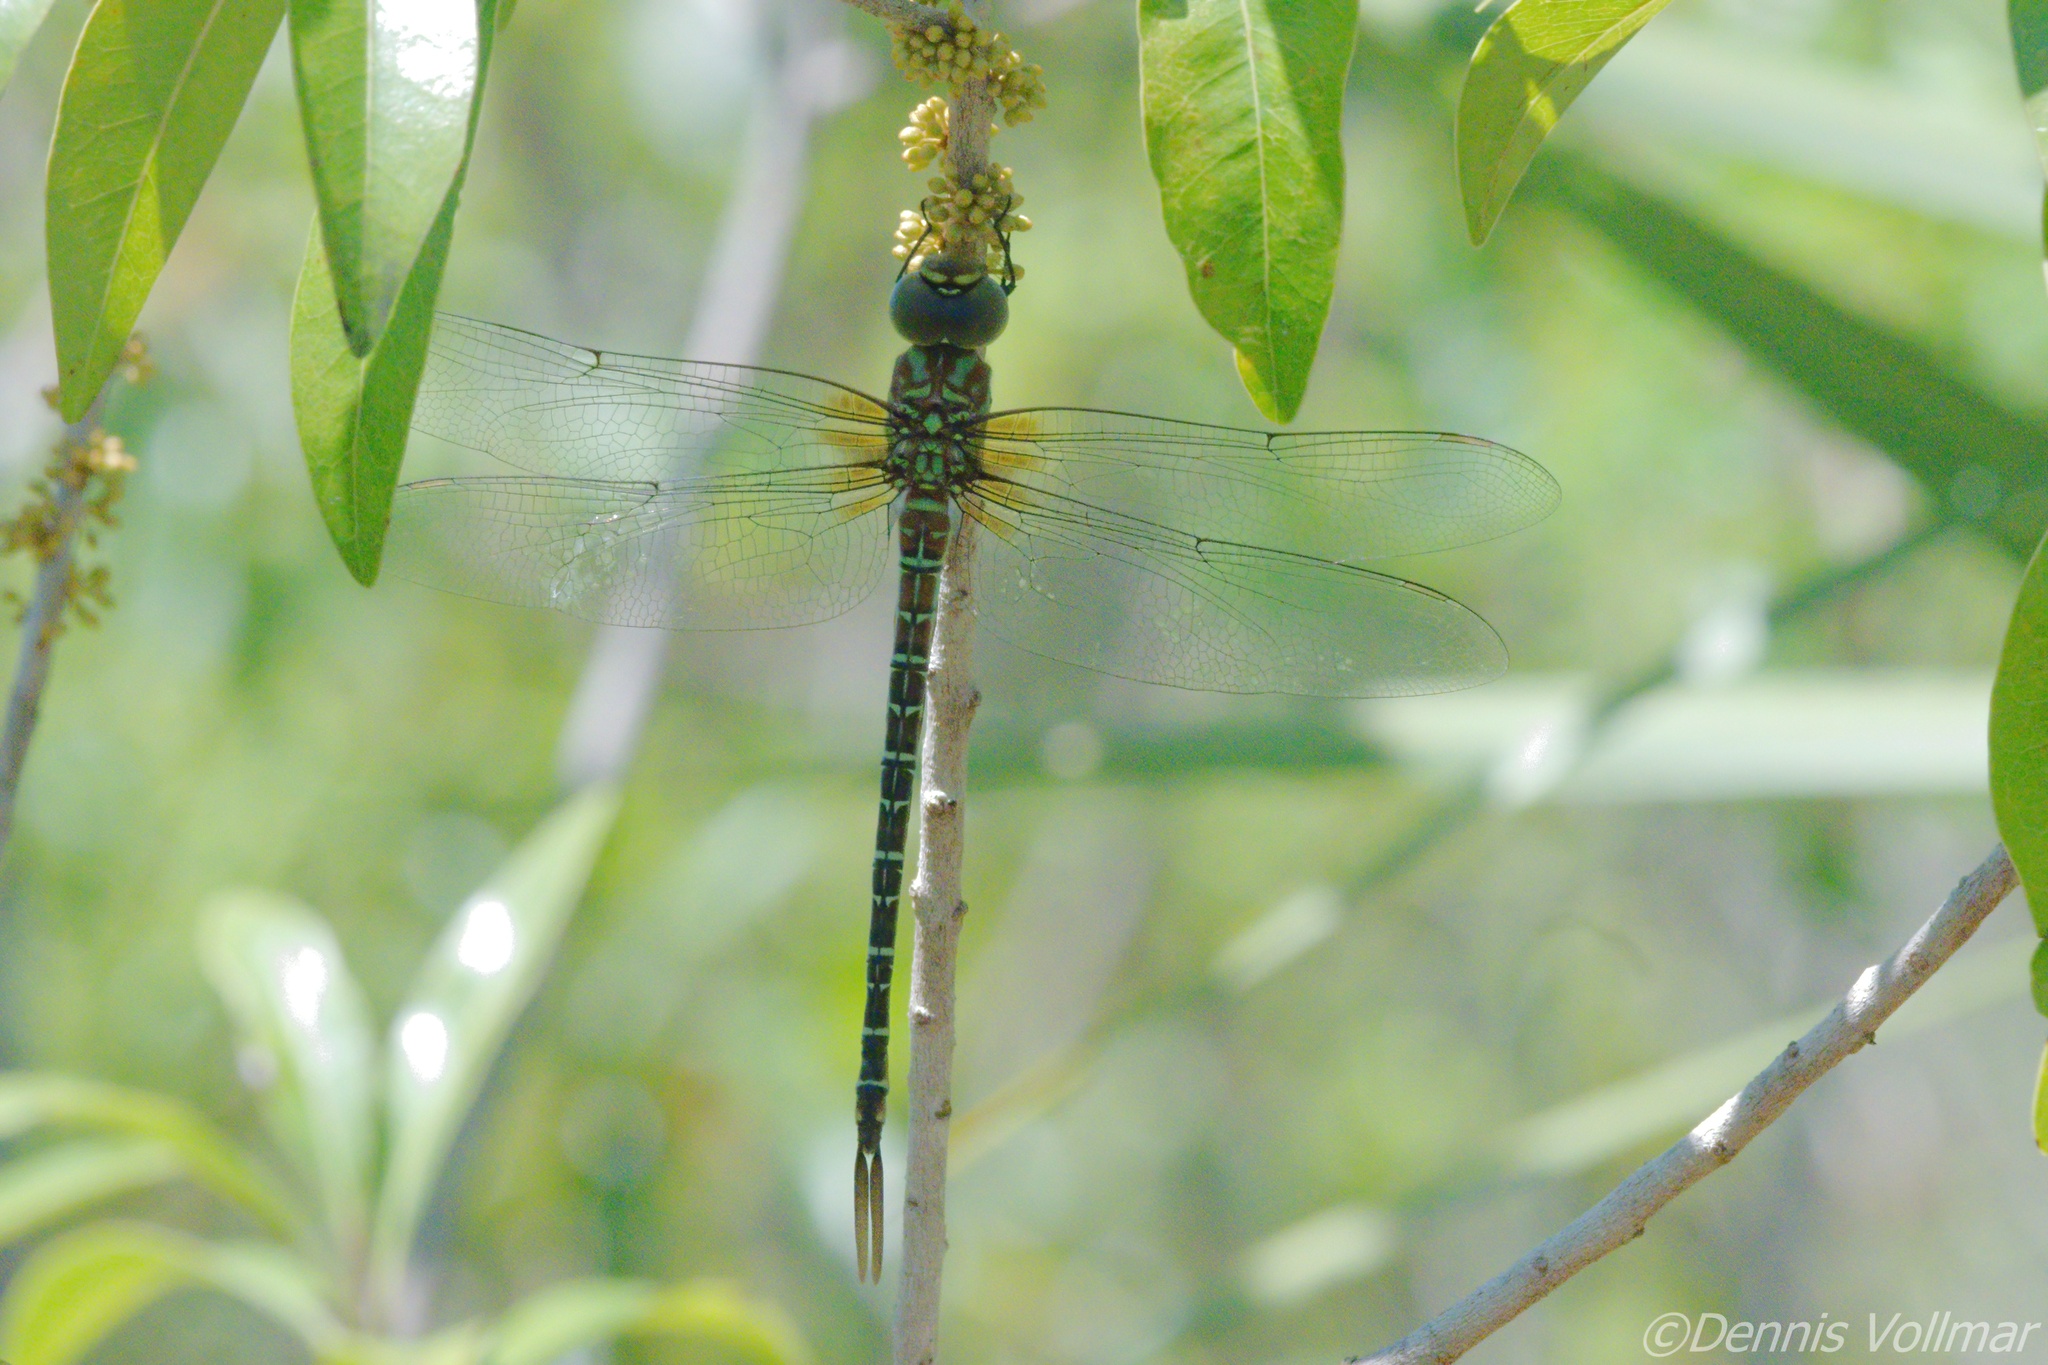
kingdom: Animalia
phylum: Arthropoda
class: Insecta
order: Odonata
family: Aeshnidae
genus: Coryphaeschna
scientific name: Coryphaeschna ingens
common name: Regal darner
